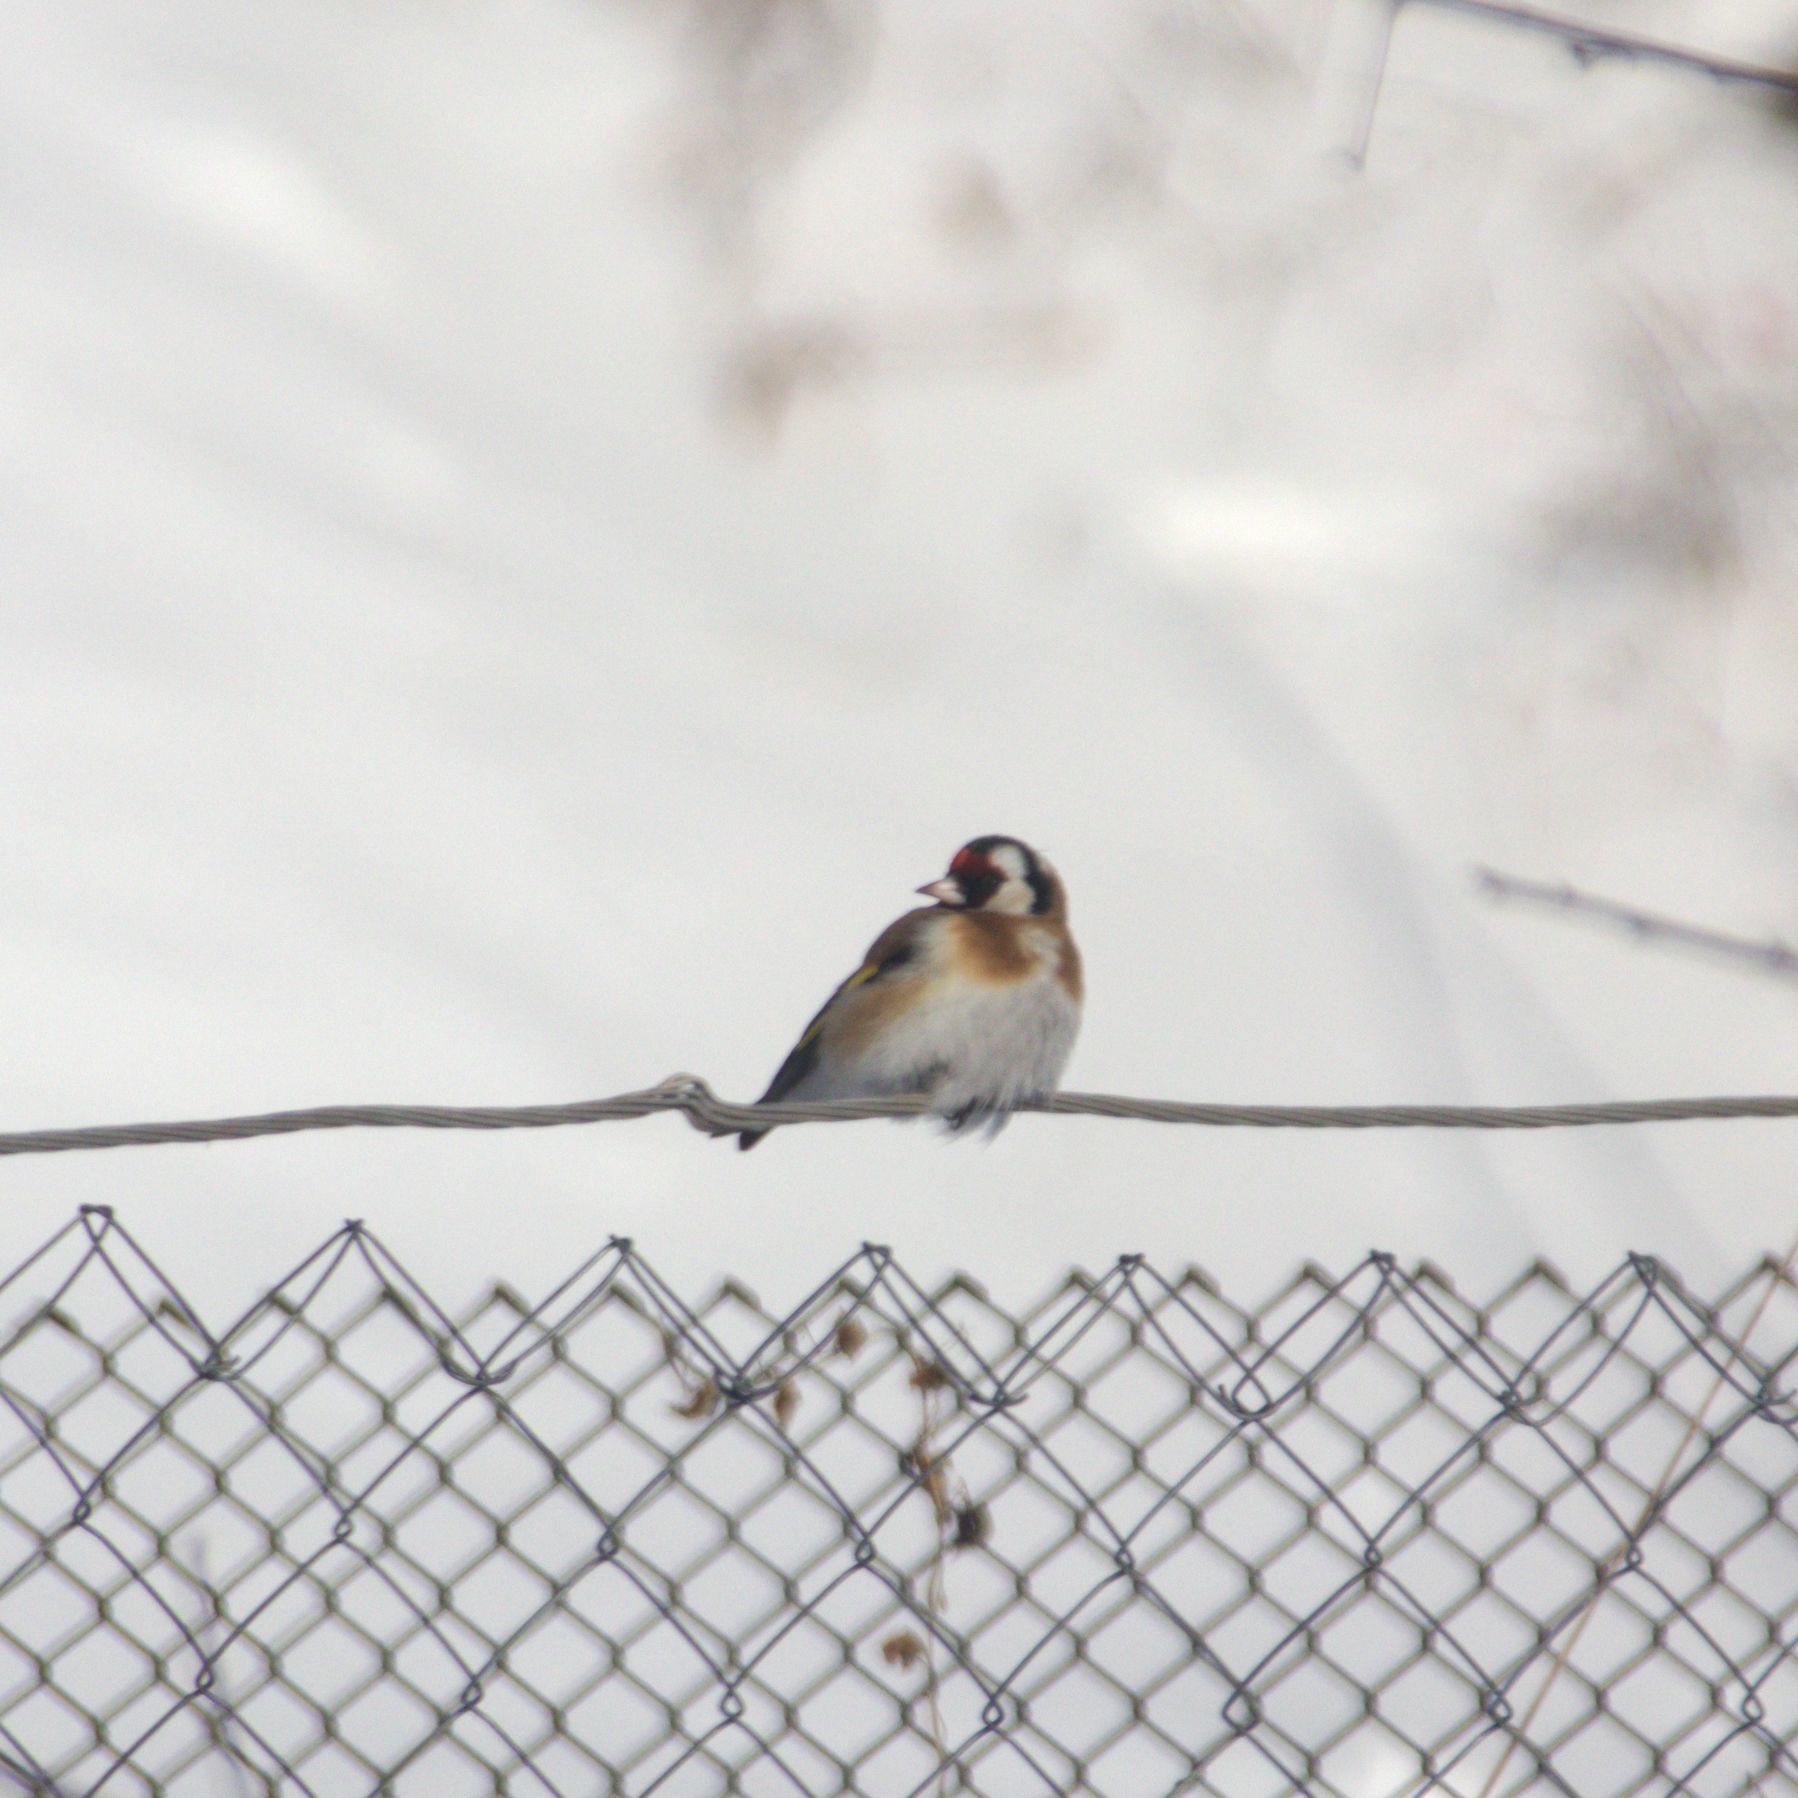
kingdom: Animalia
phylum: Chordata
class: Aves
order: Passeriformes
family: Fringillidae
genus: Carduelis
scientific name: Carduelis carduelis
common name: European goldfinch
